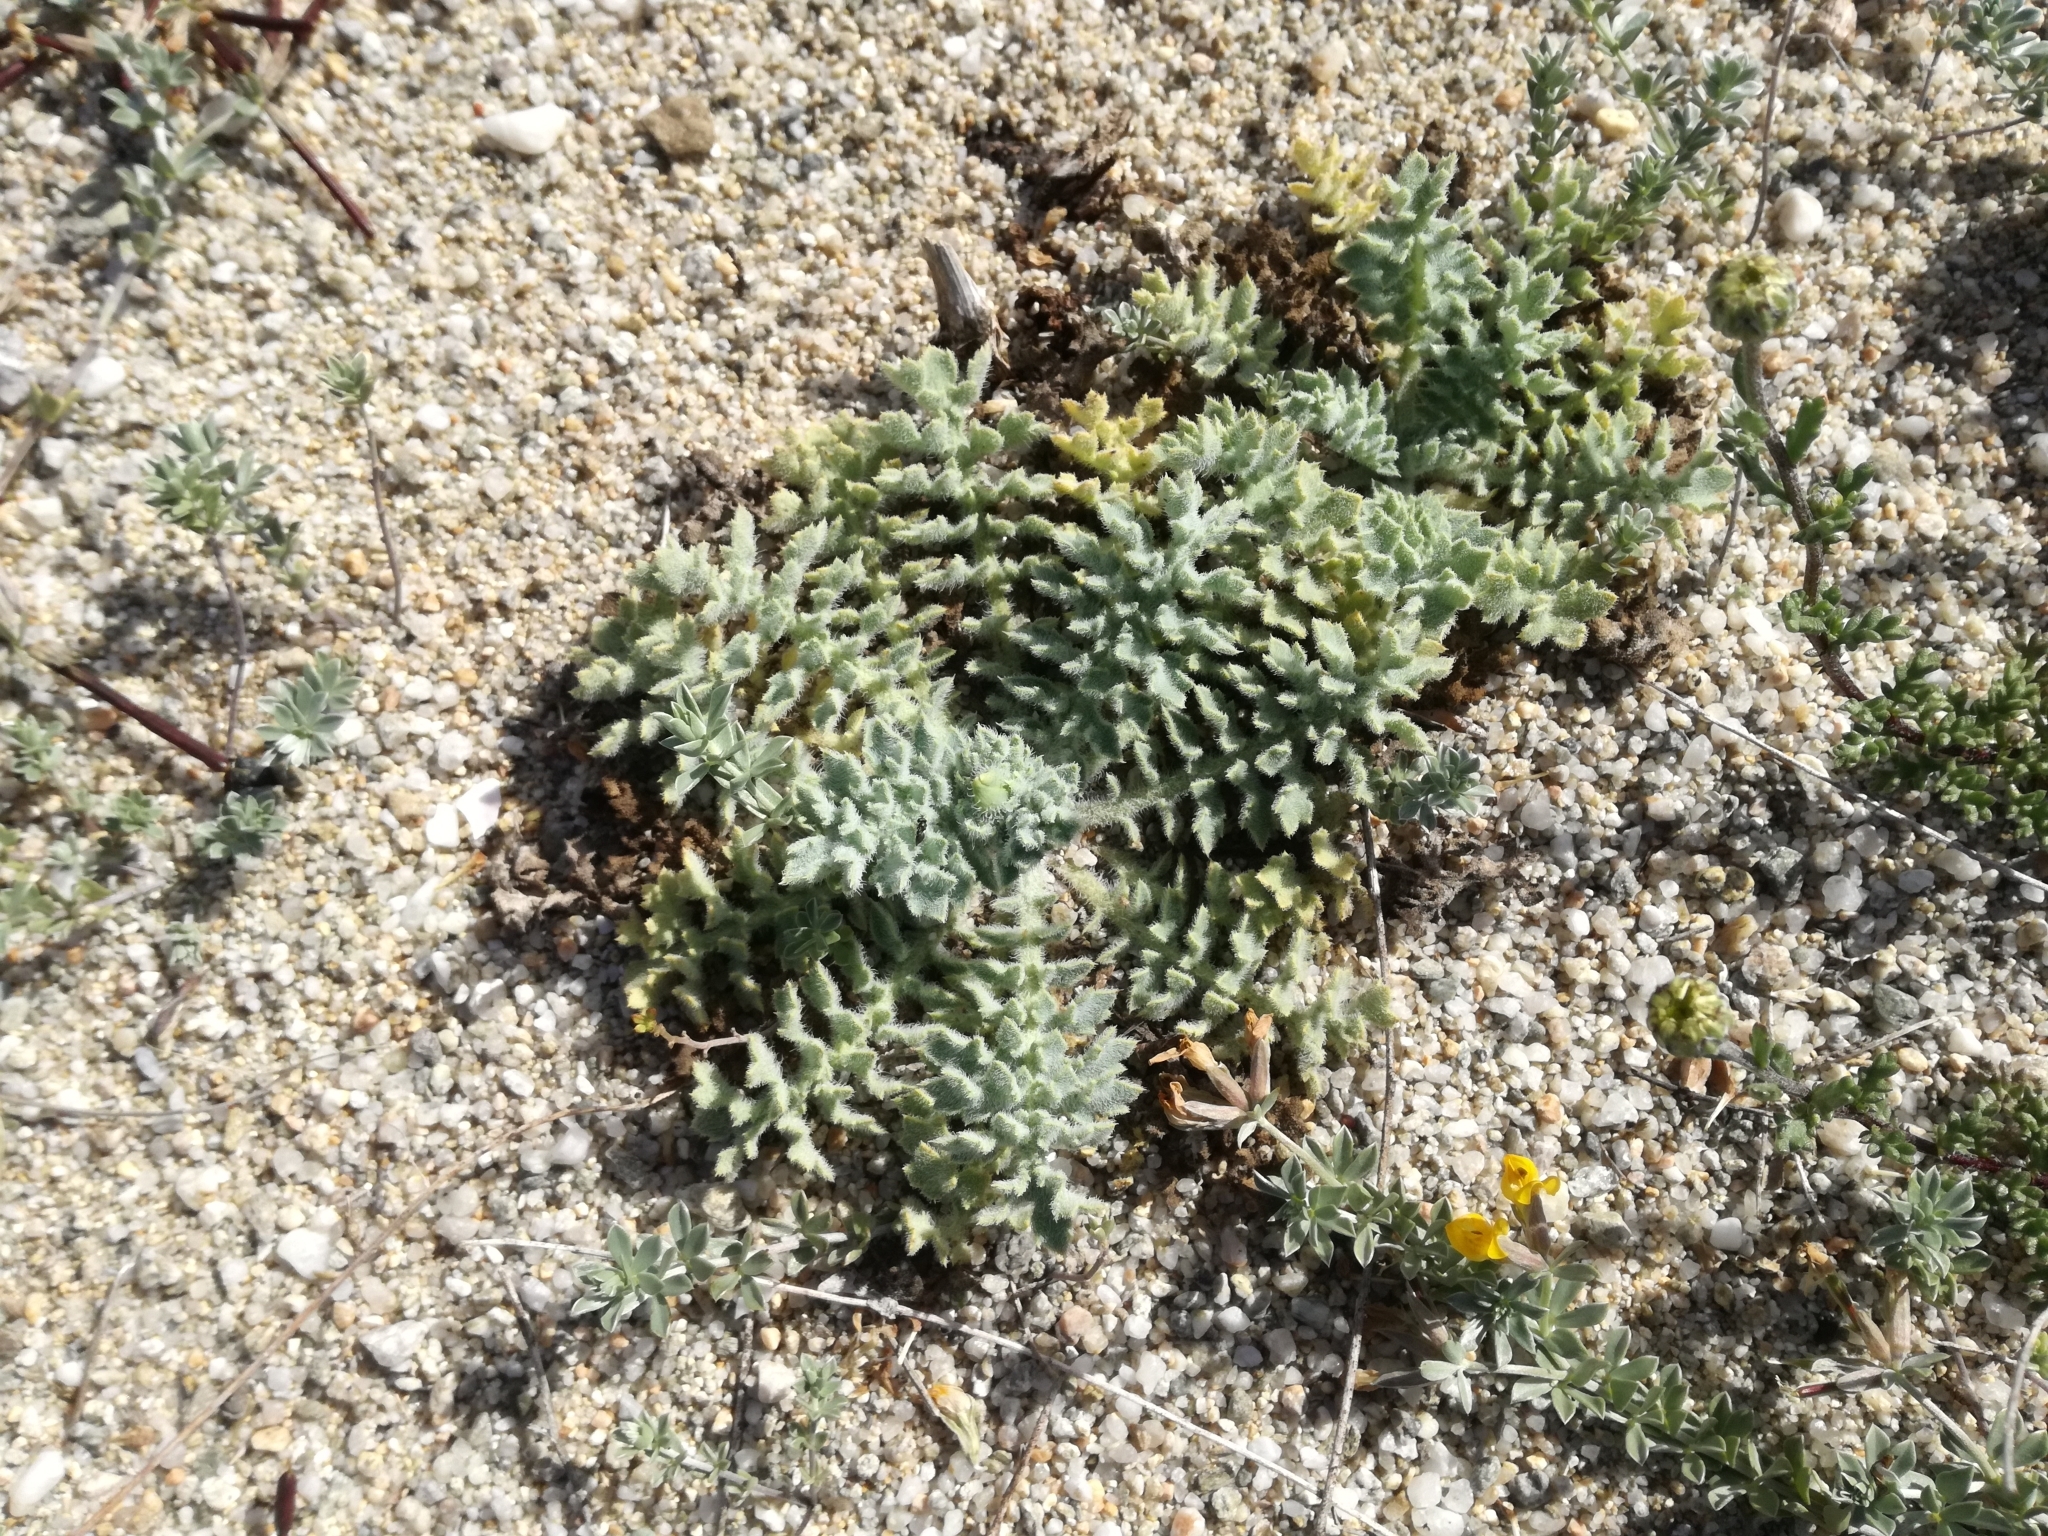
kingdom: Plantae
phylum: Tracheophyta
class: Magnoliopsida
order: Ranunculales
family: Papaveraceae
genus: Glaucium
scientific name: Glaucium flavum
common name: Yellow horned-poppy
